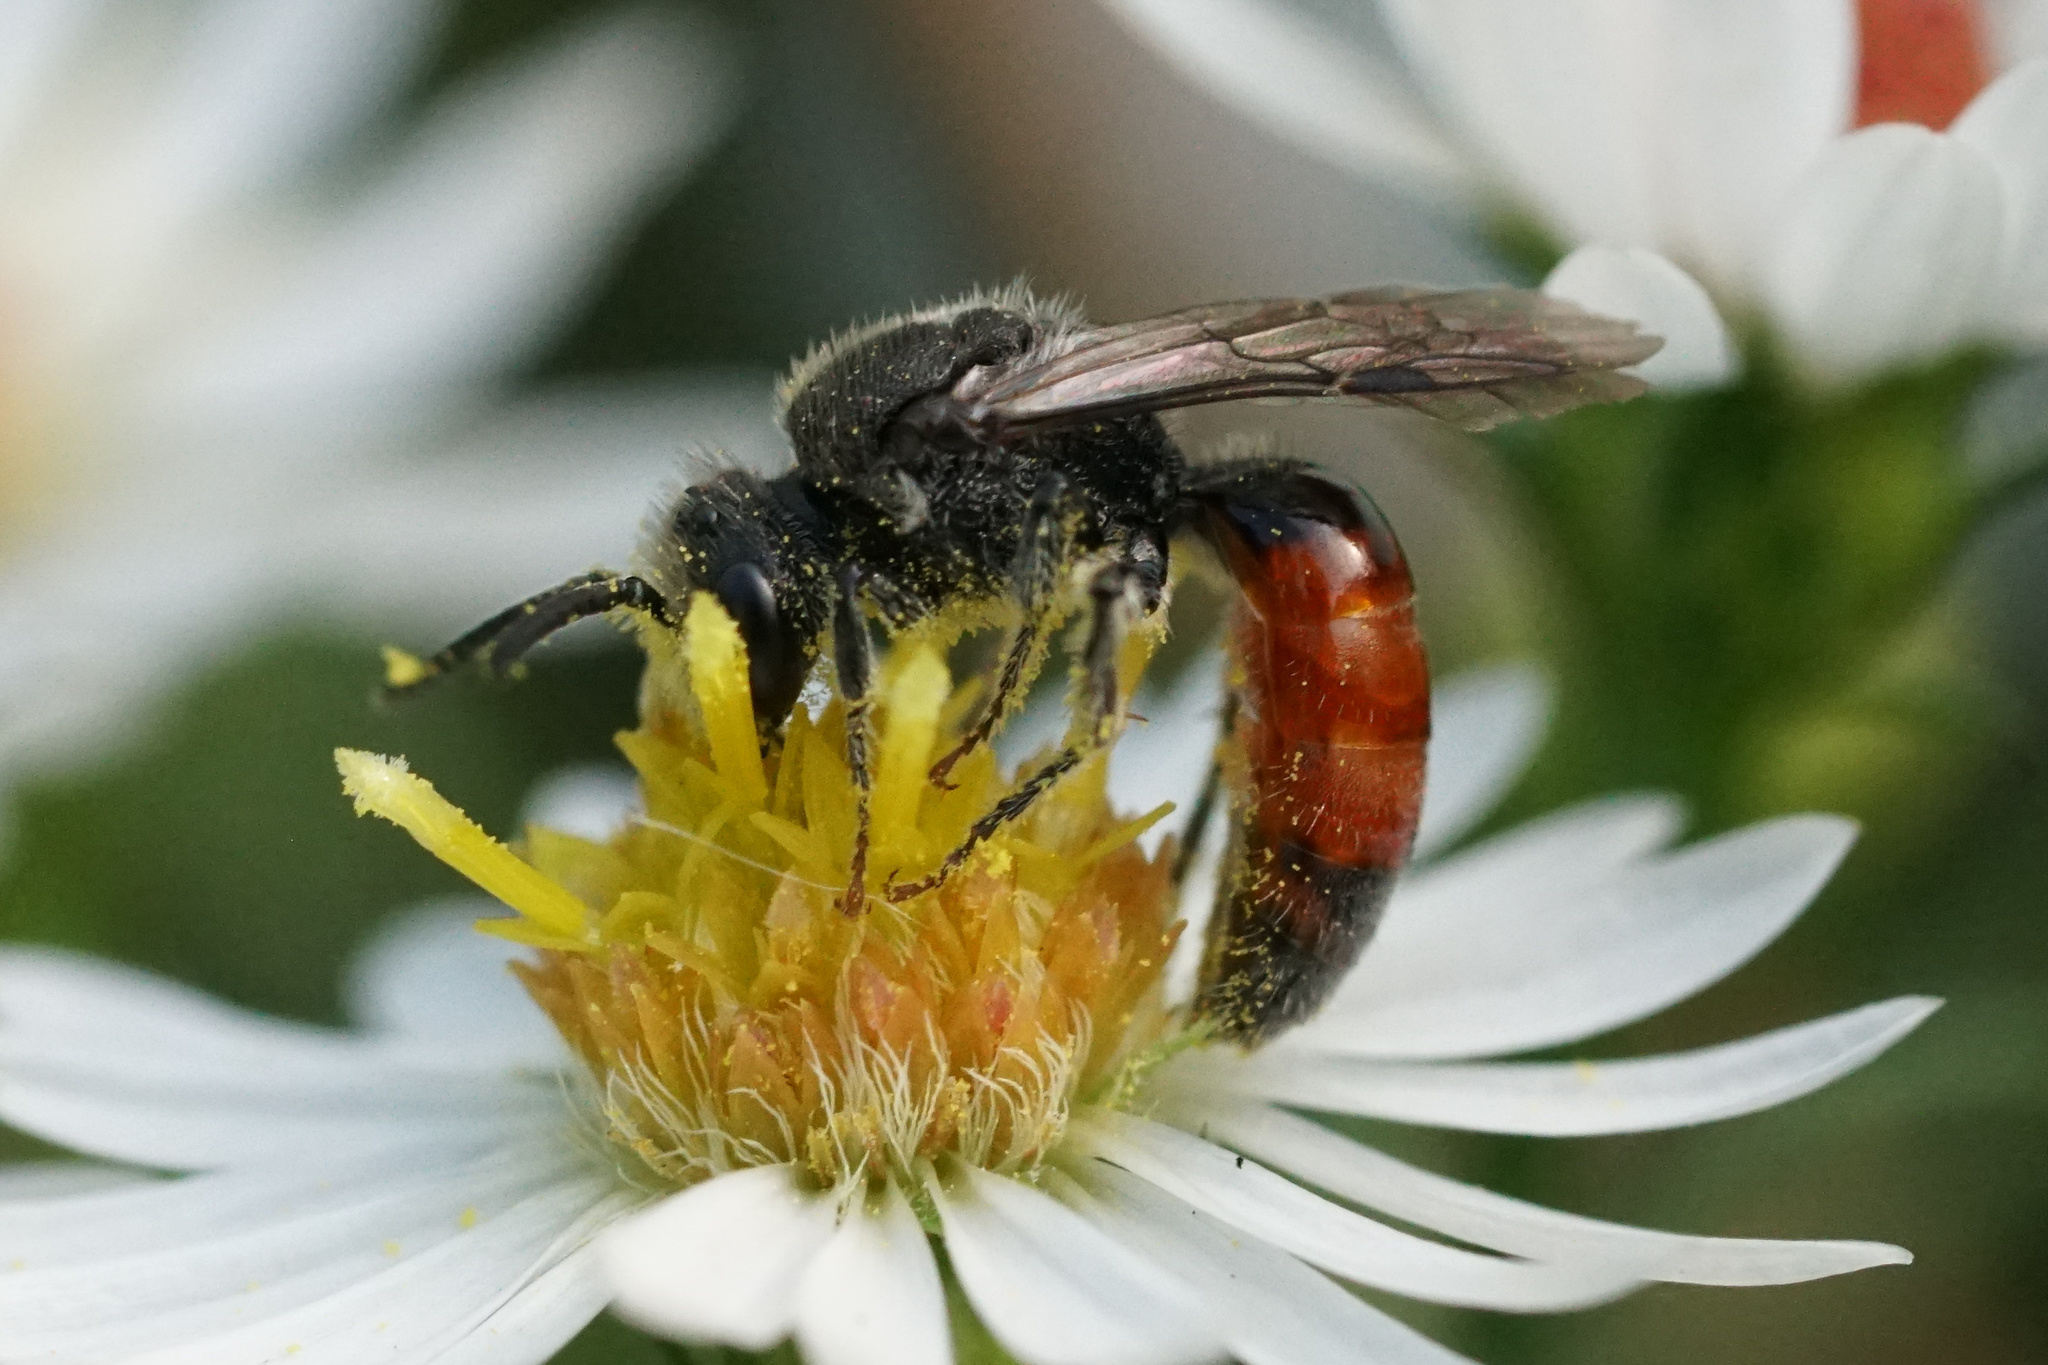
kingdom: Animalia
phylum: Arthropoda
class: Insecta
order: Hymenoptera
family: Halictidae
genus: Sphecodes
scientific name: Sphecodes davisii
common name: Davis's cuckoo sweat bee
